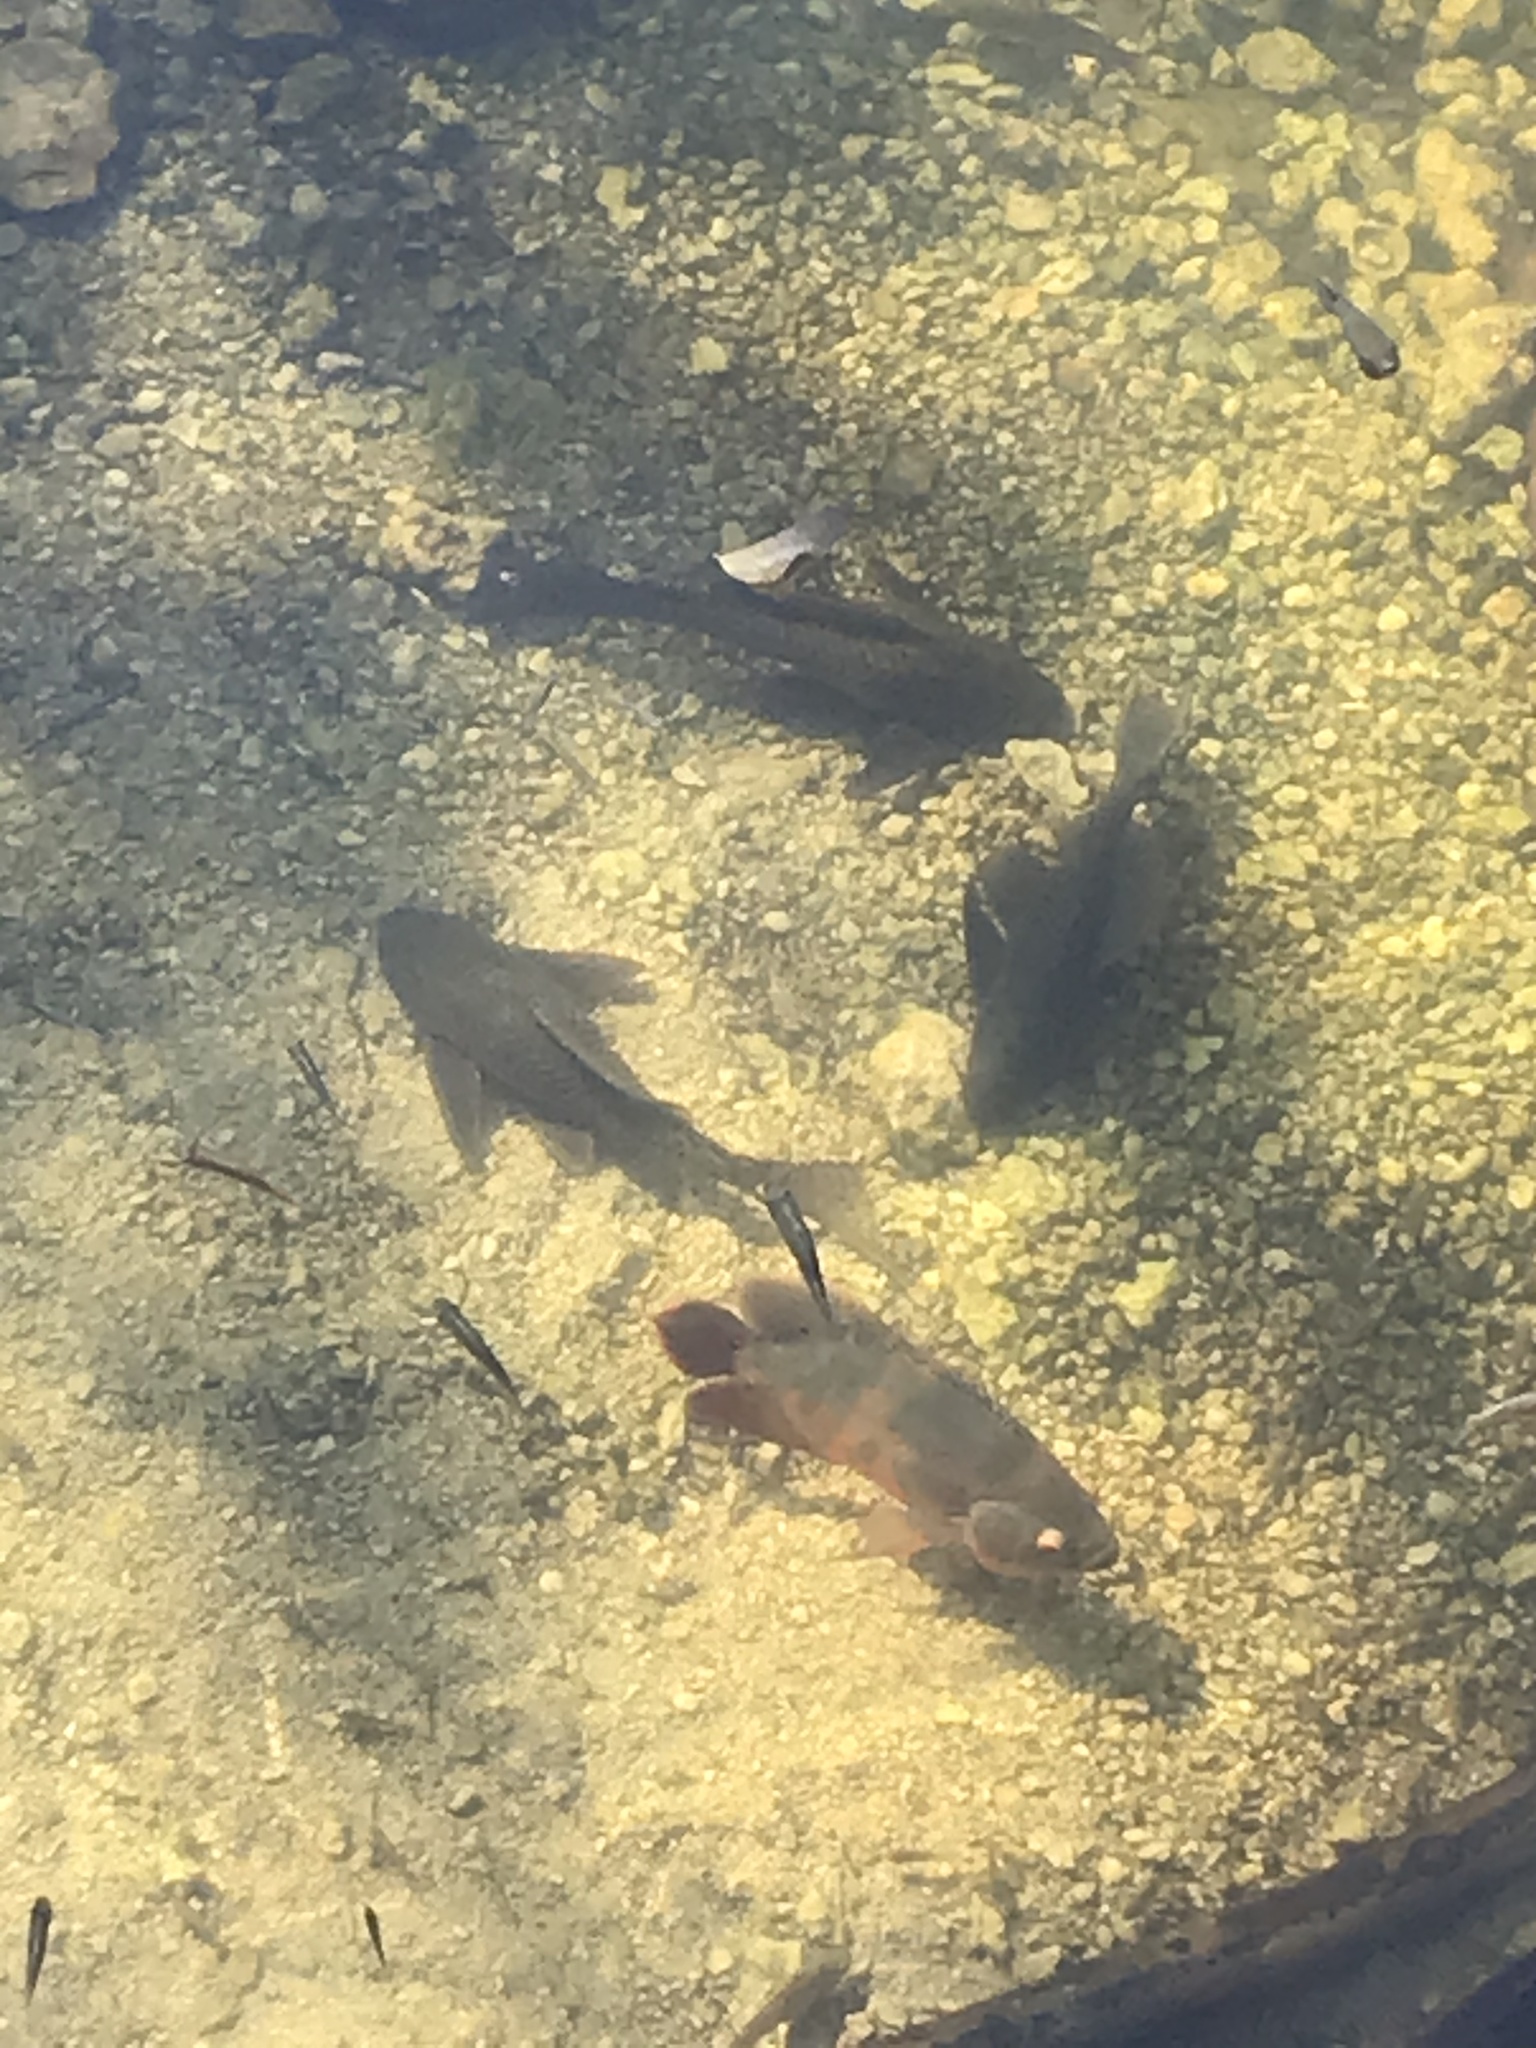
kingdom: Animalia
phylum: Chordata
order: Siluriformes
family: Loricariidae
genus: Pterygoplichthys
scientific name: Pterygoplichthys
